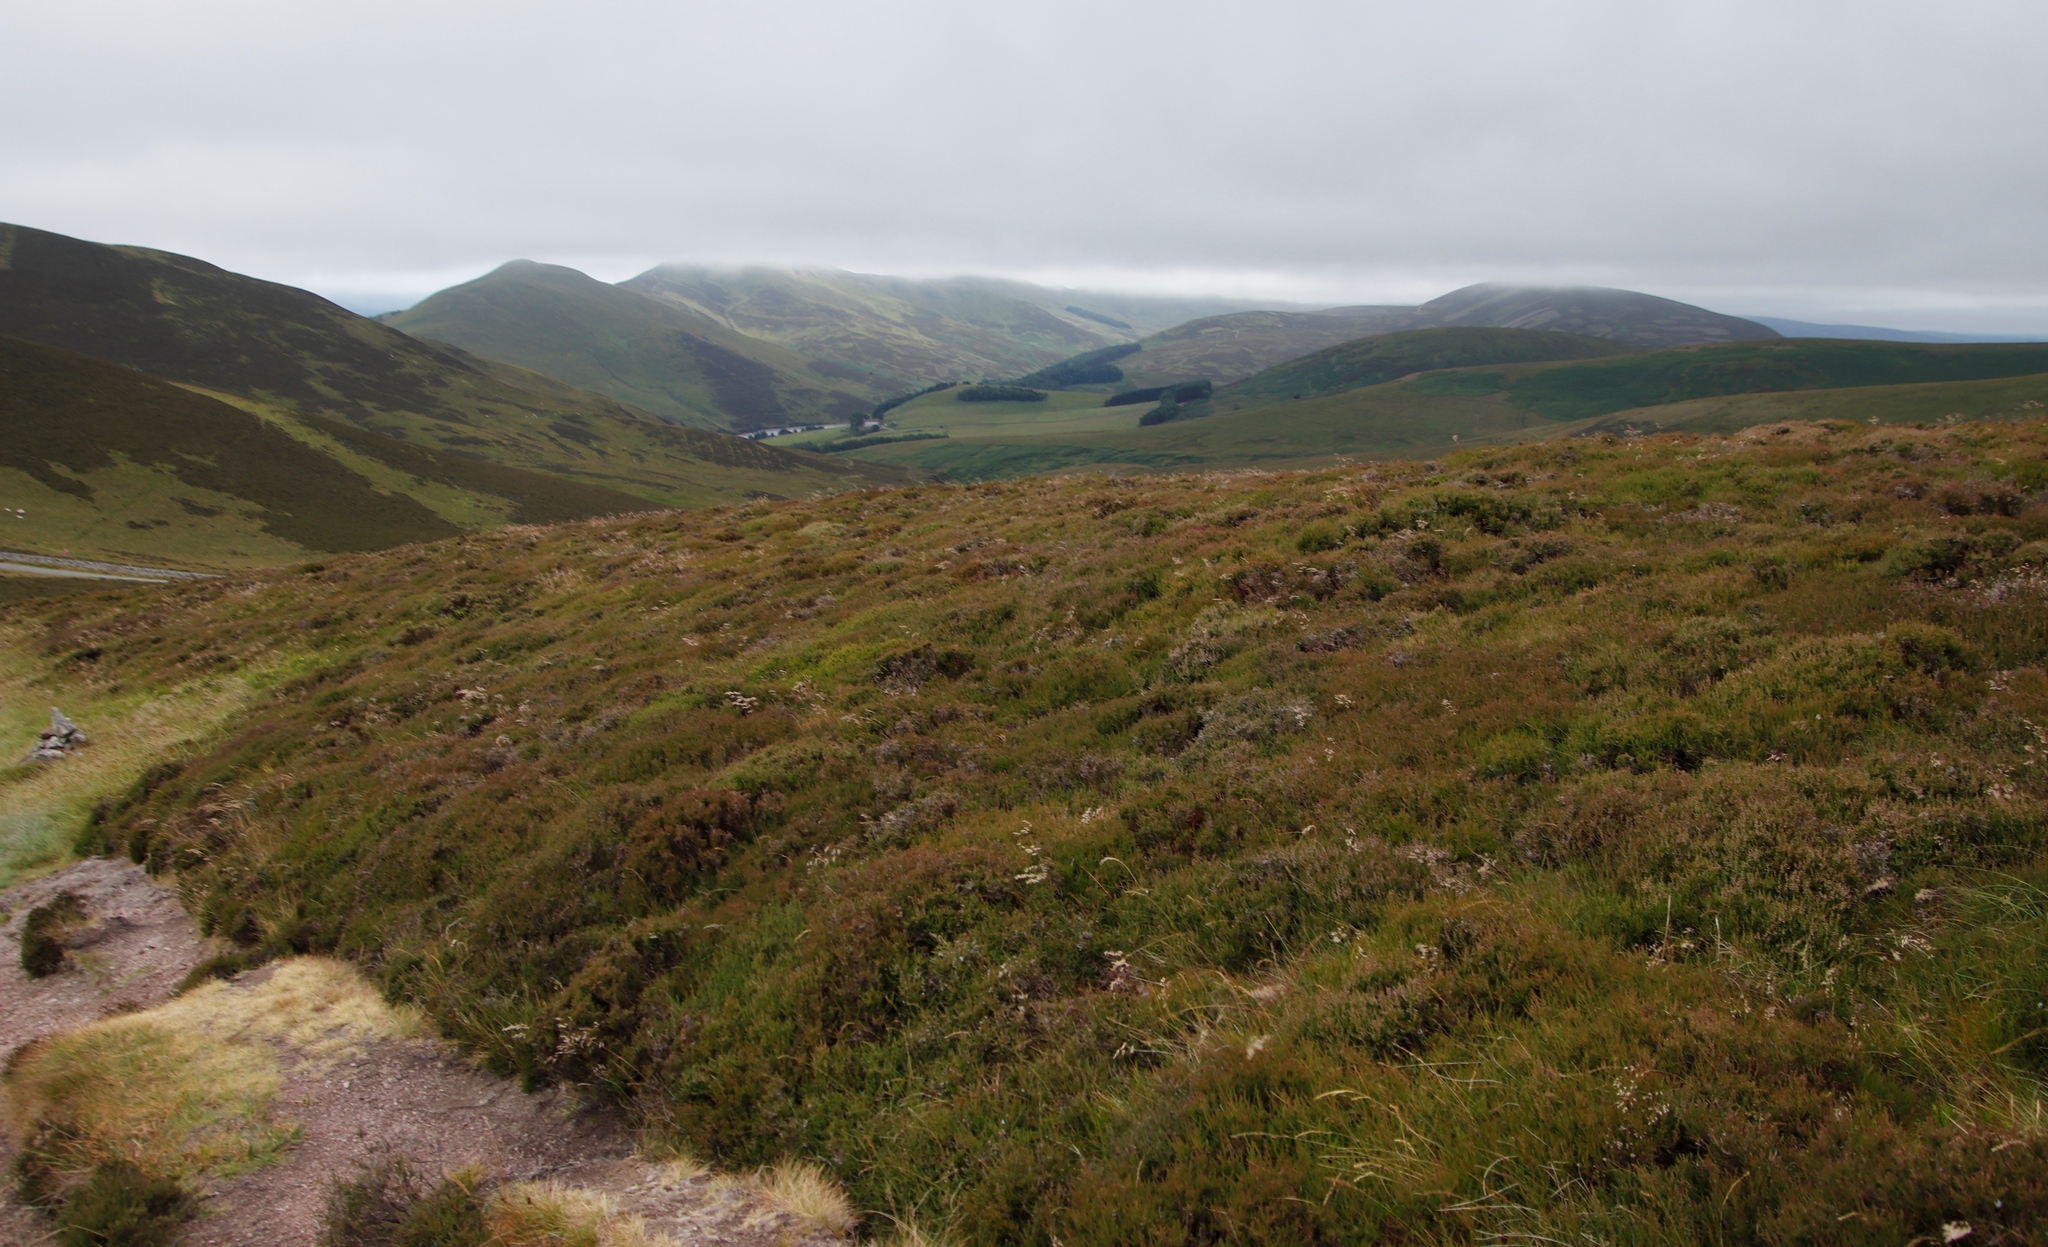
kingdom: Plantae
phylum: Tracheophyta
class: Magnoliopsida
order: Ericales
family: Ericaceae
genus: Calluna
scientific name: Calluna vulgaris
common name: Heather
